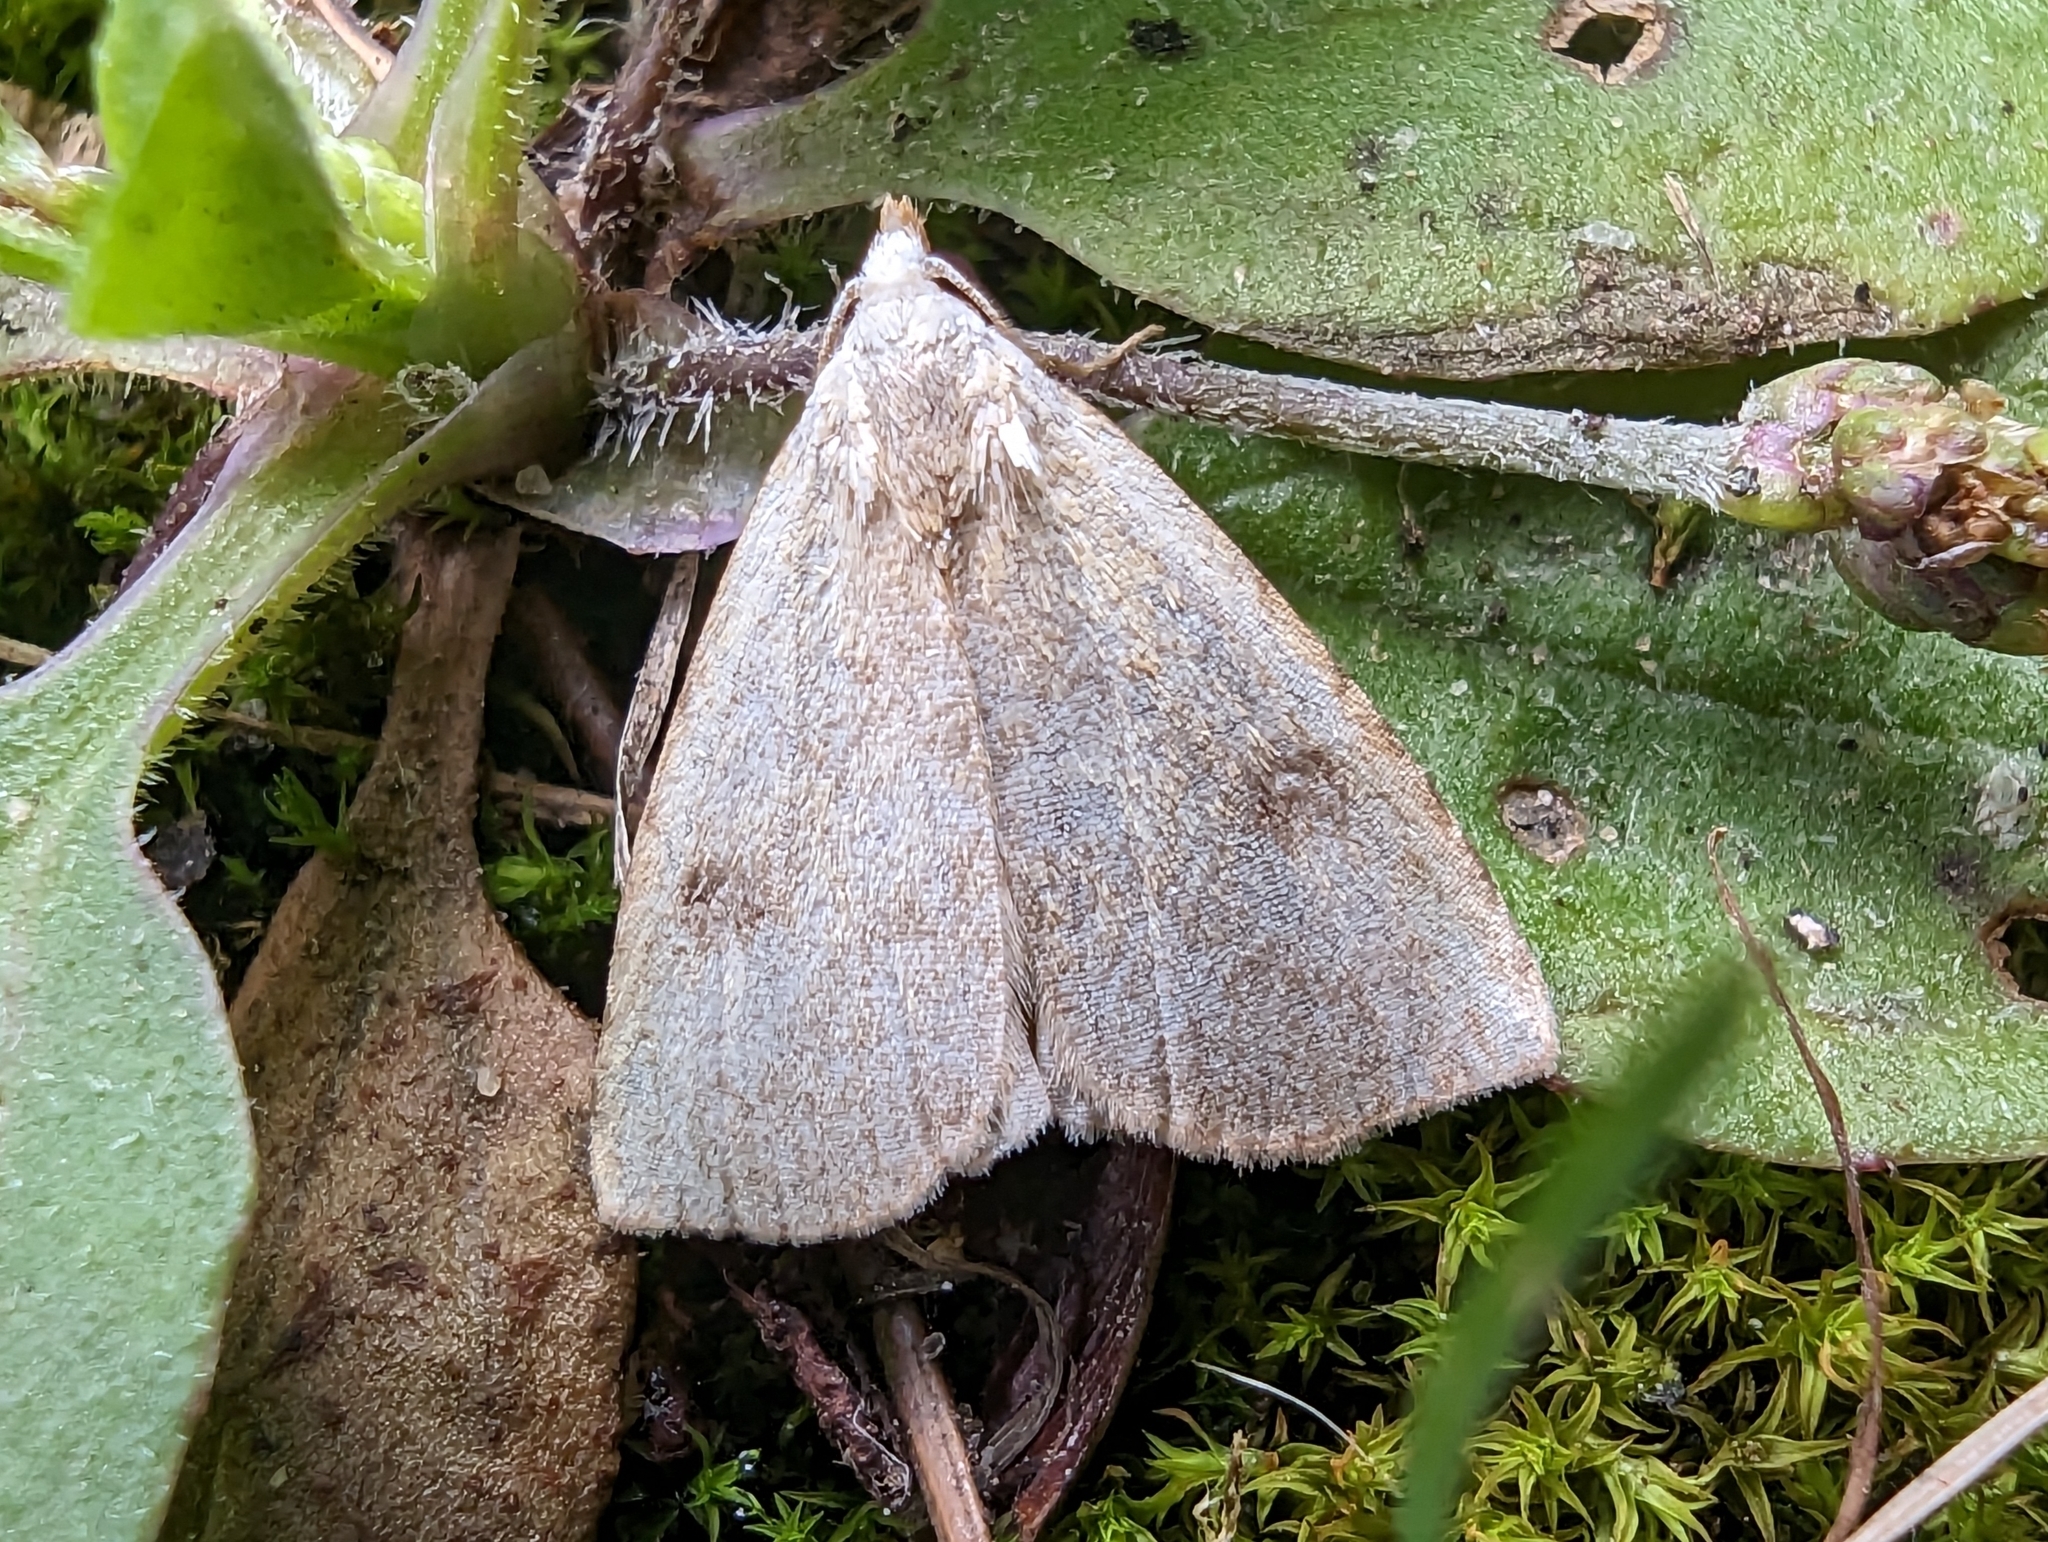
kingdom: Animalia
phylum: Arthropoda
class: Insecta
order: Lepidoptera
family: Erebidae
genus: Rivula
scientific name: Rivula sericealis
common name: Straw dot
